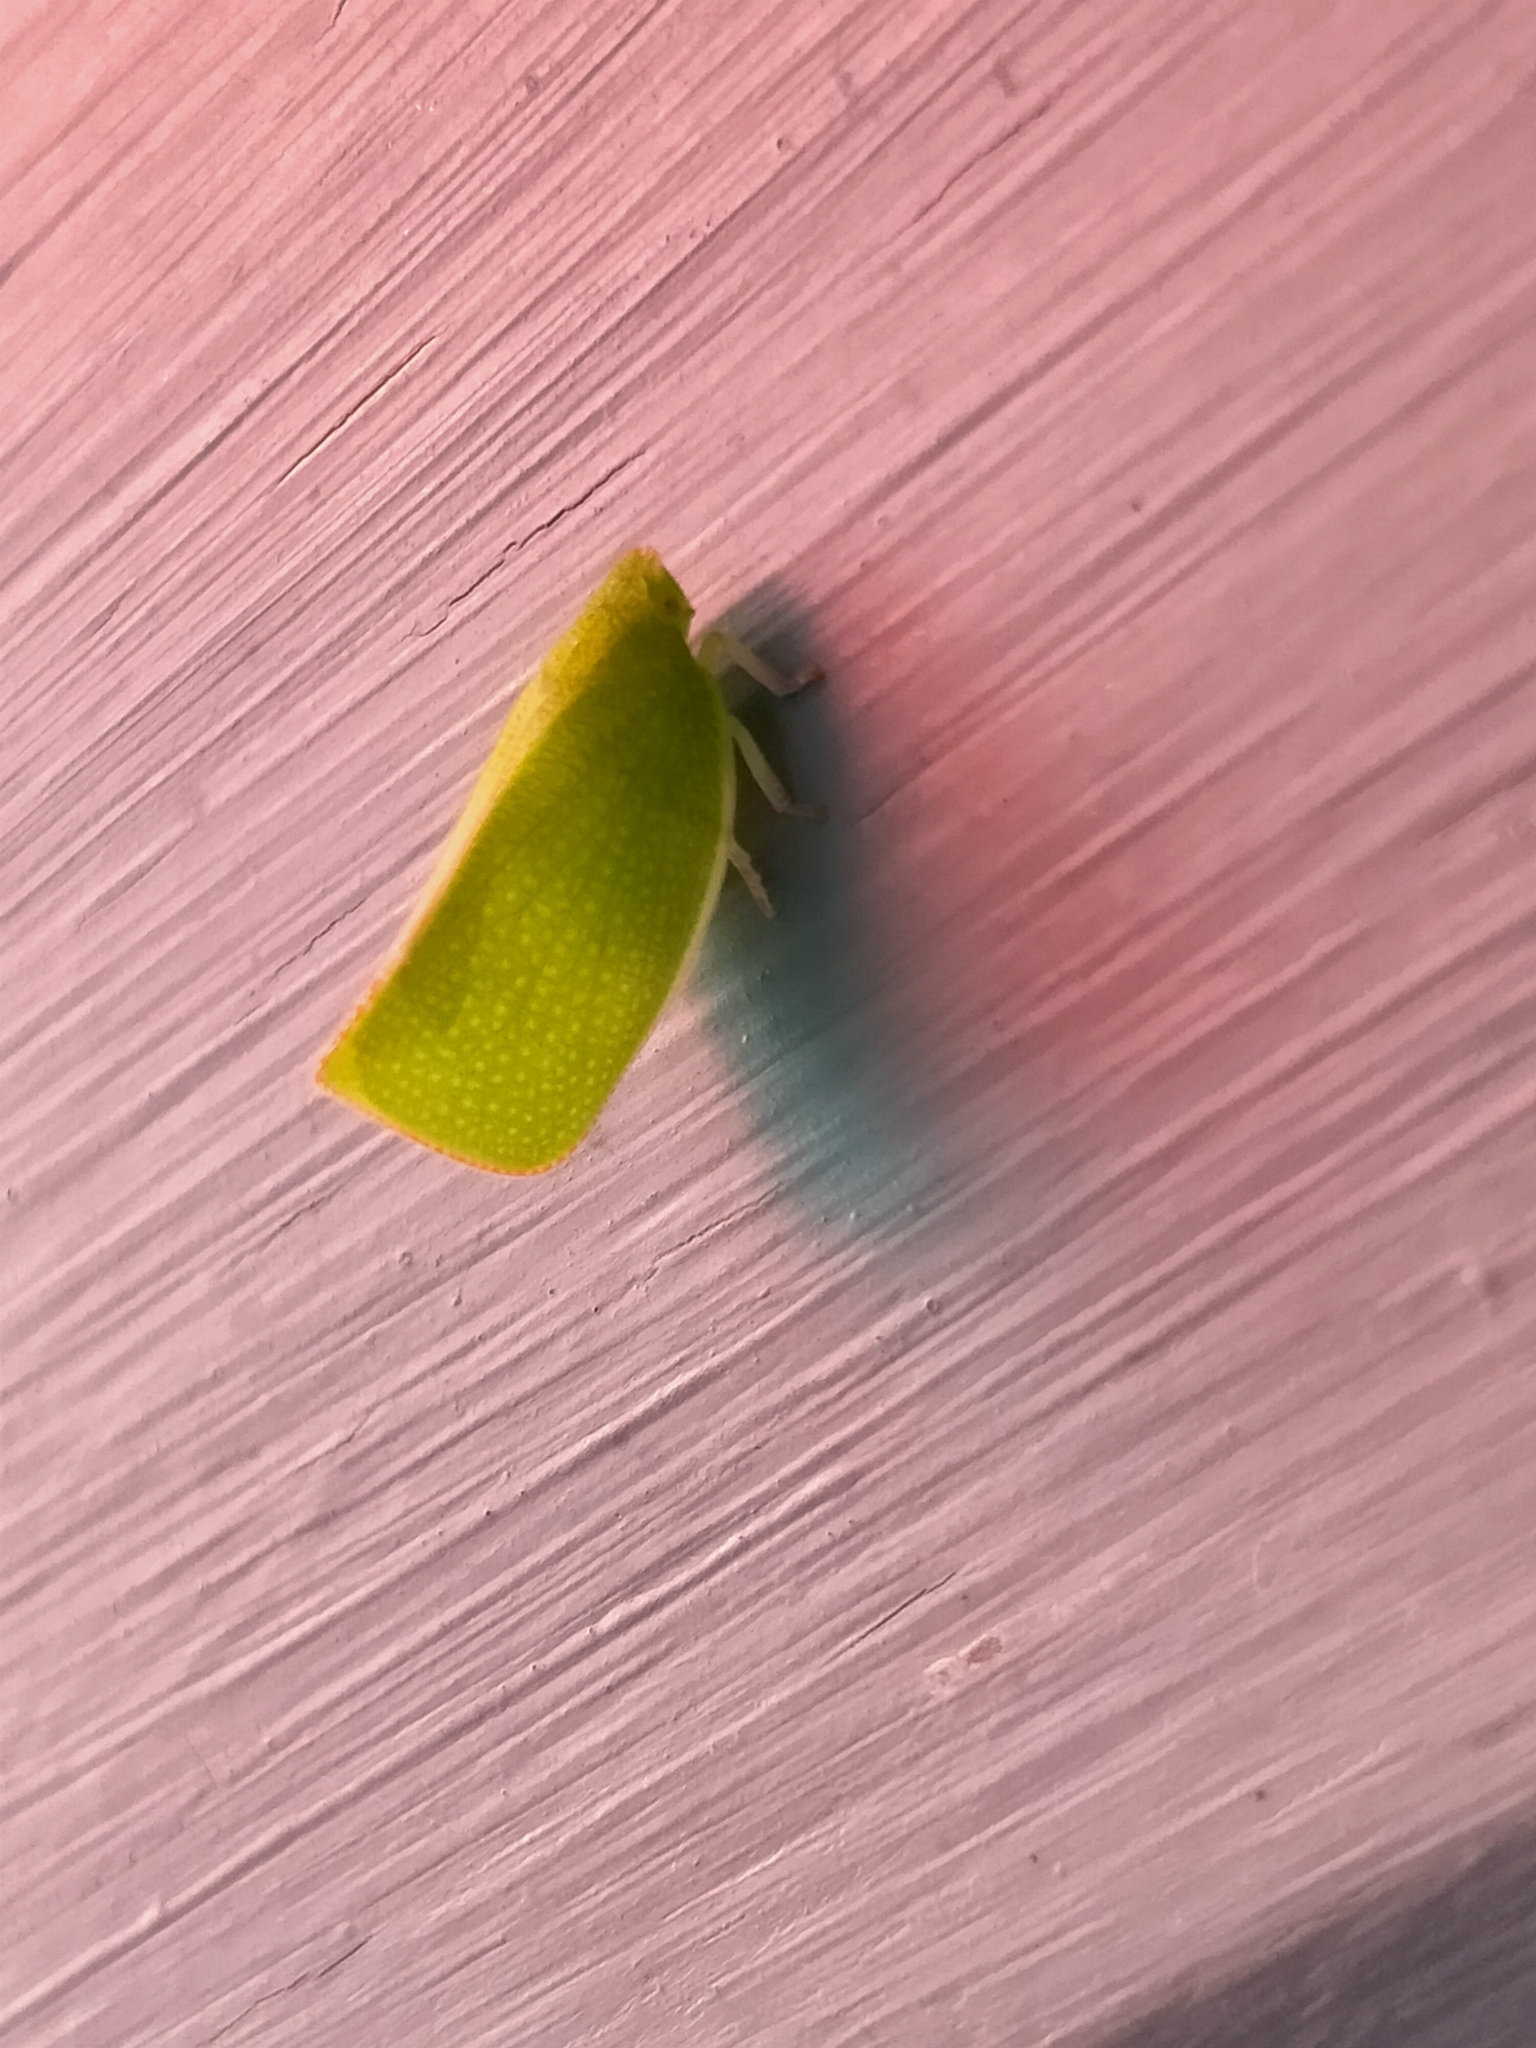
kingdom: Animalia
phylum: Arthropoda
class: Insecta
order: Hemiptera
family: Flatidae
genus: Siphanta
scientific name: Siphanta acuta
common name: Torpedo bug
